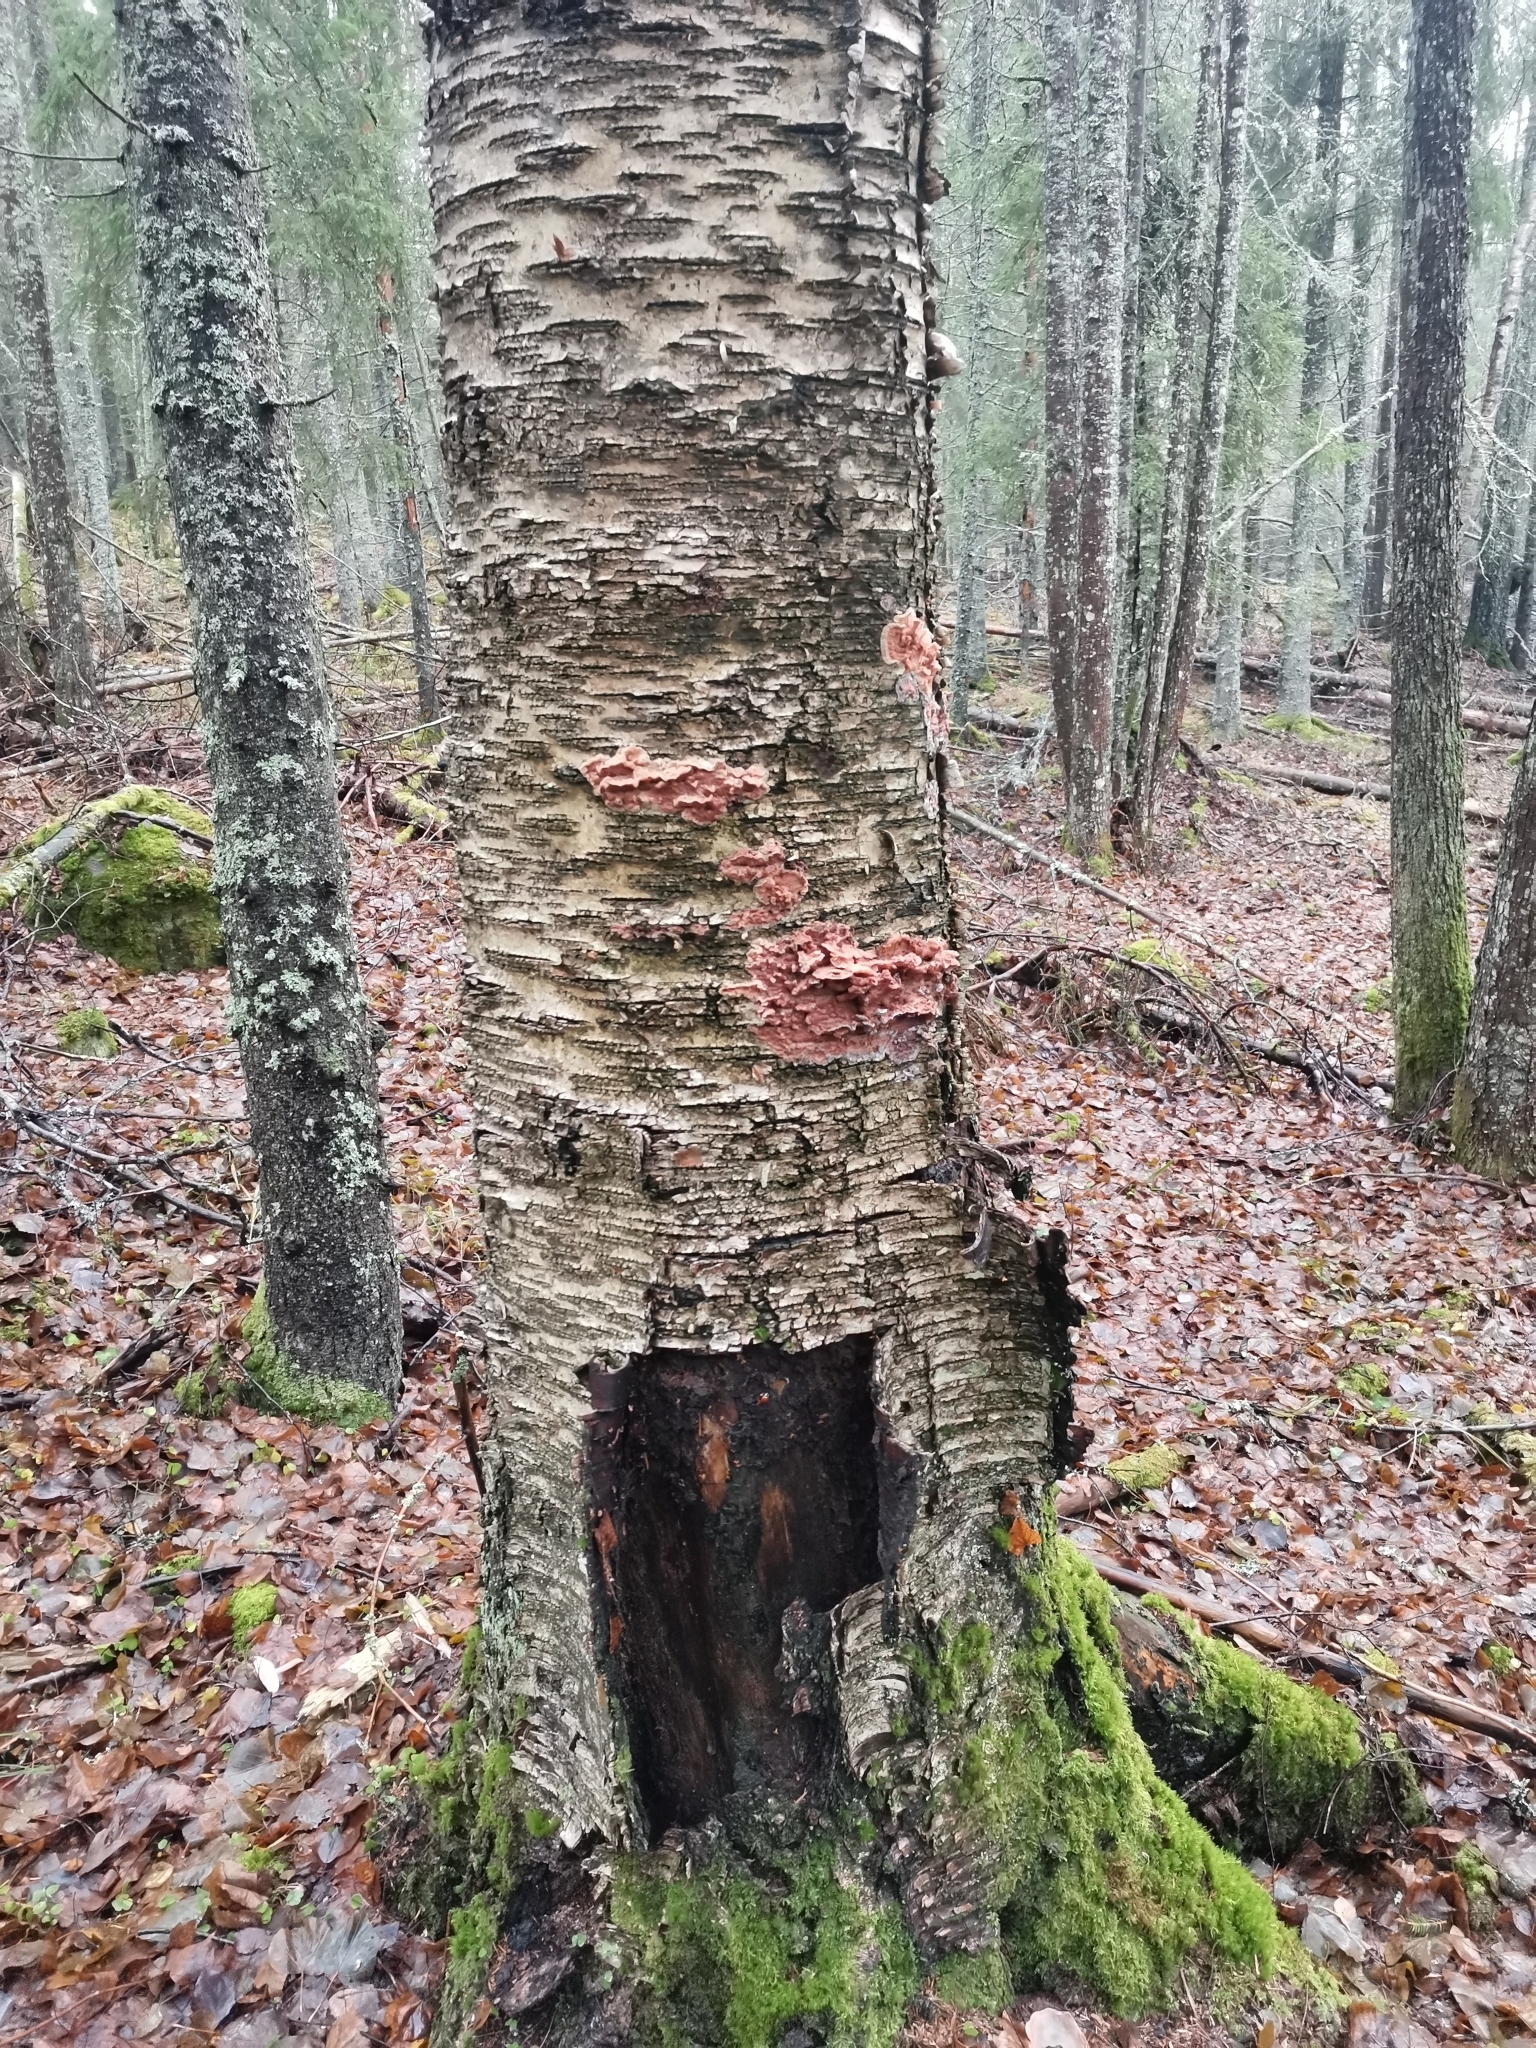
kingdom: Fungi
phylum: Basidiomycota
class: Agaricomycetes
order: Polyporales
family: Meruliaceae
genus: Phlebia
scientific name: Phlebia tremellosa
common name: Jelly rot
